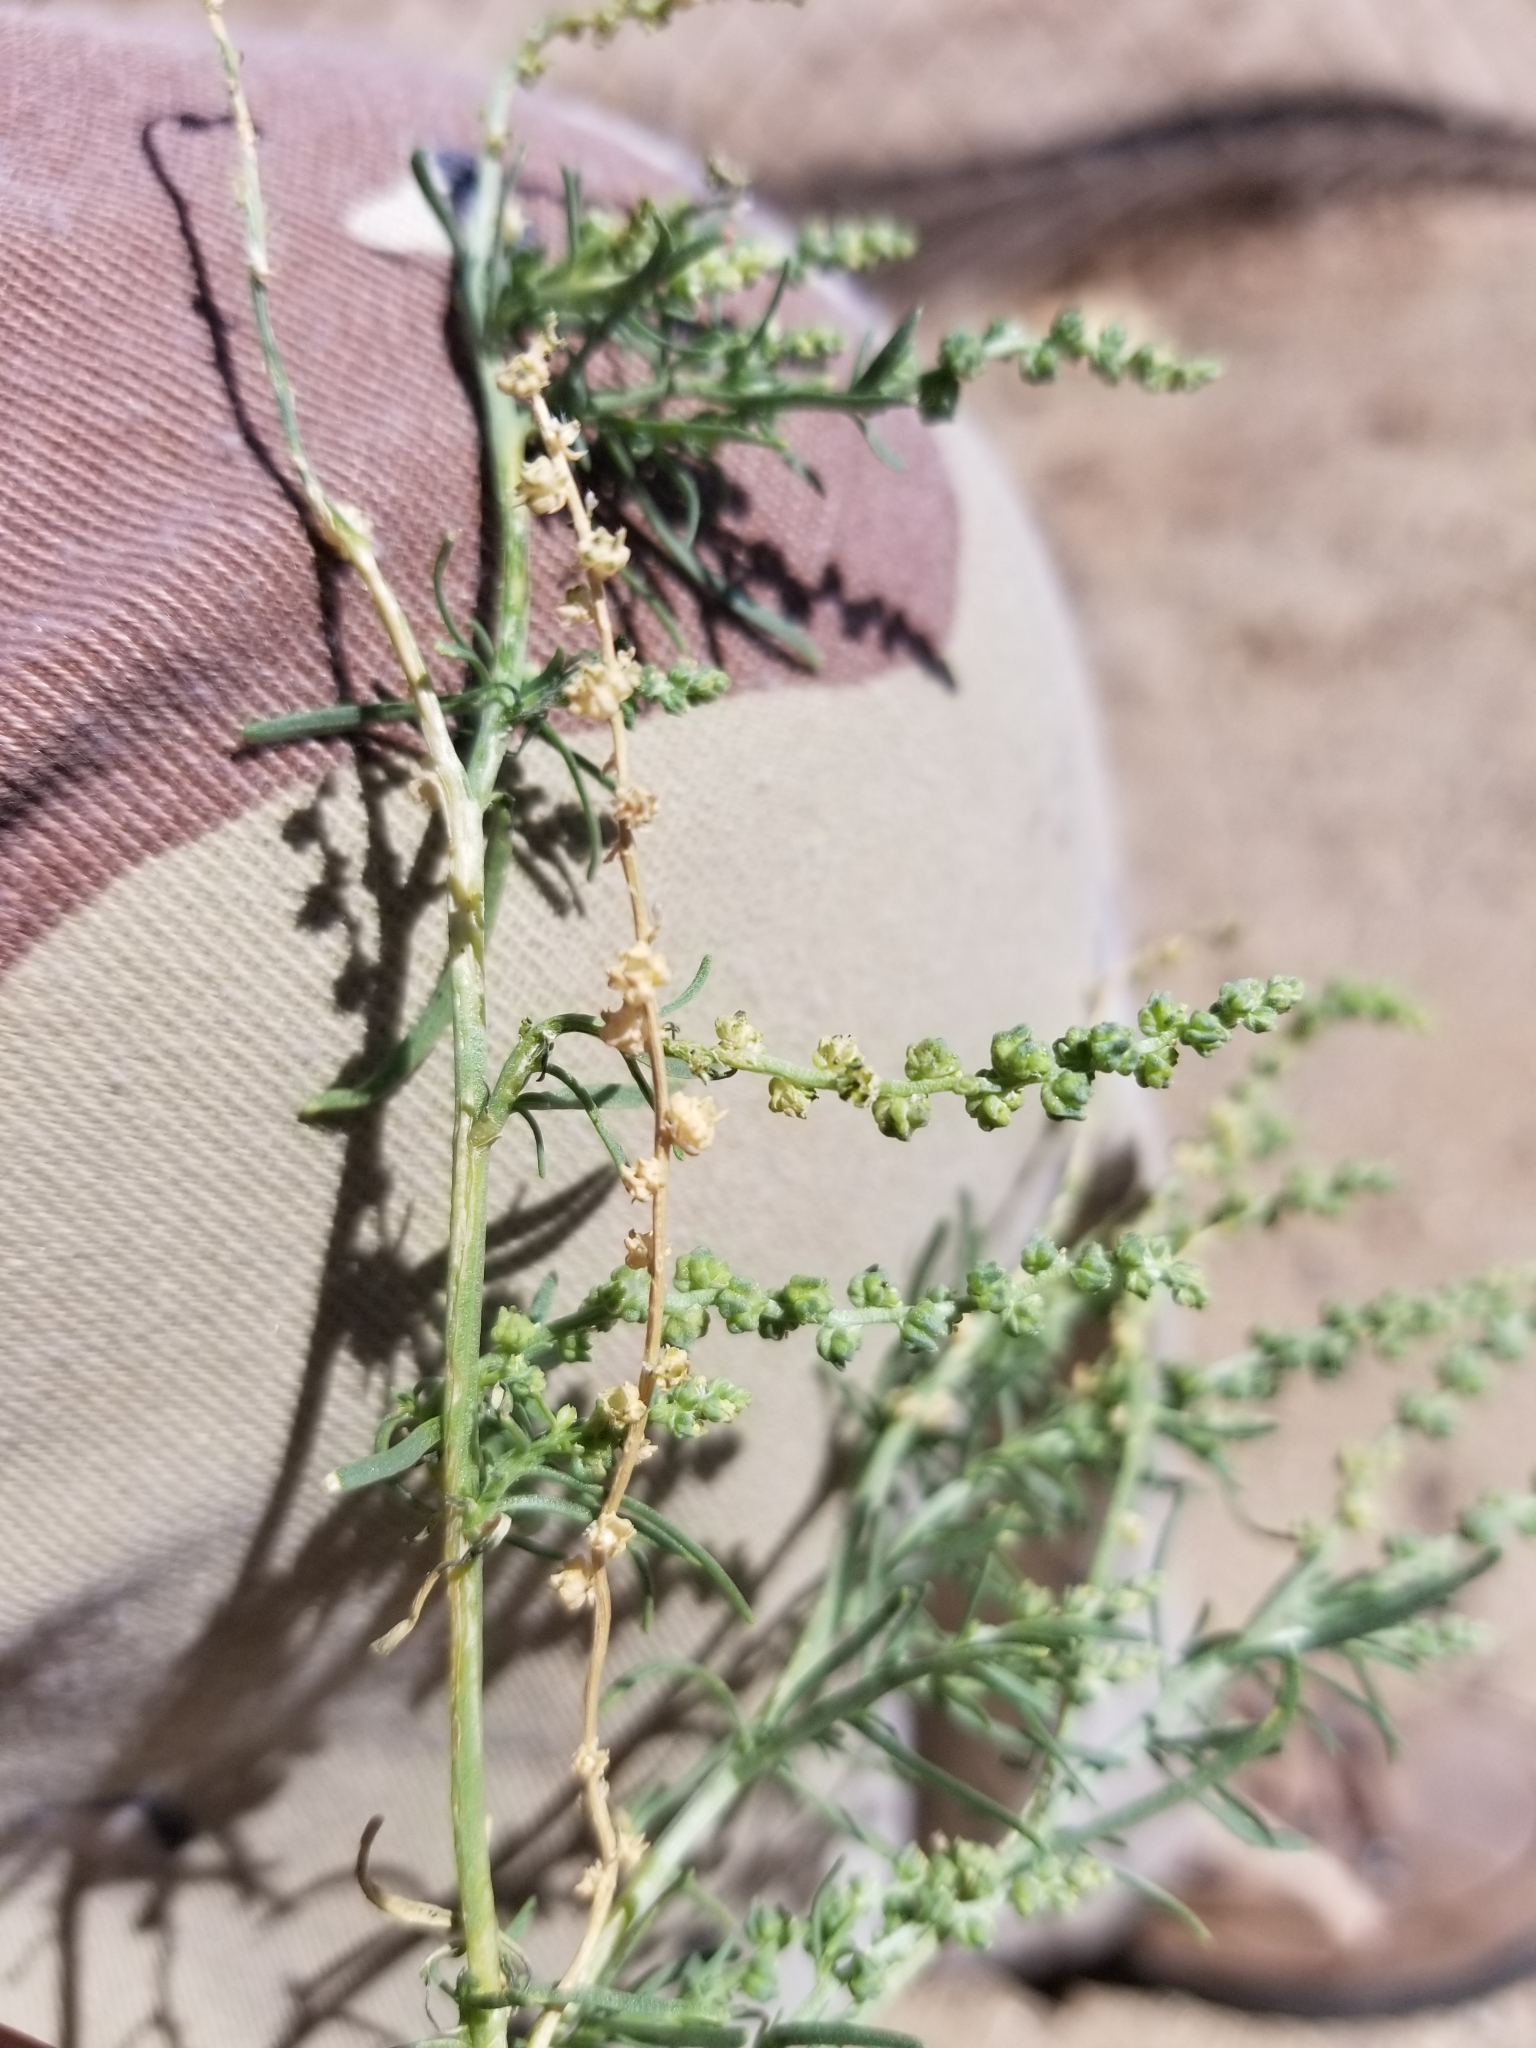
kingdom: Plantae
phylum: Tracheophyta
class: Magnoliopsida
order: Brassicales
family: Resedaceae
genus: Oligomeris
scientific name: Oligomeris linifolia
